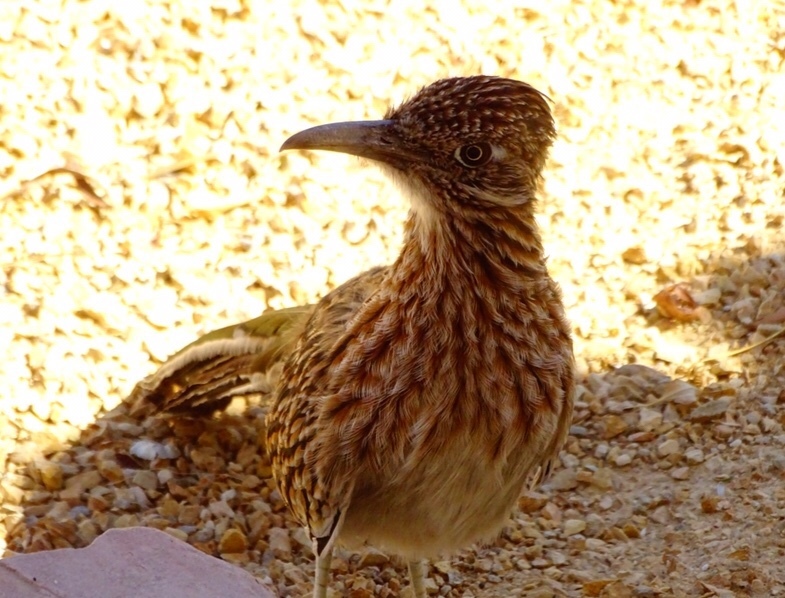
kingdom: Animalia
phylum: Chordata
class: Aves
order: Cuculiformes
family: Cuculidae
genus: Geococcyx
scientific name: Geococcyx californianus
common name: Greater roadrunner
